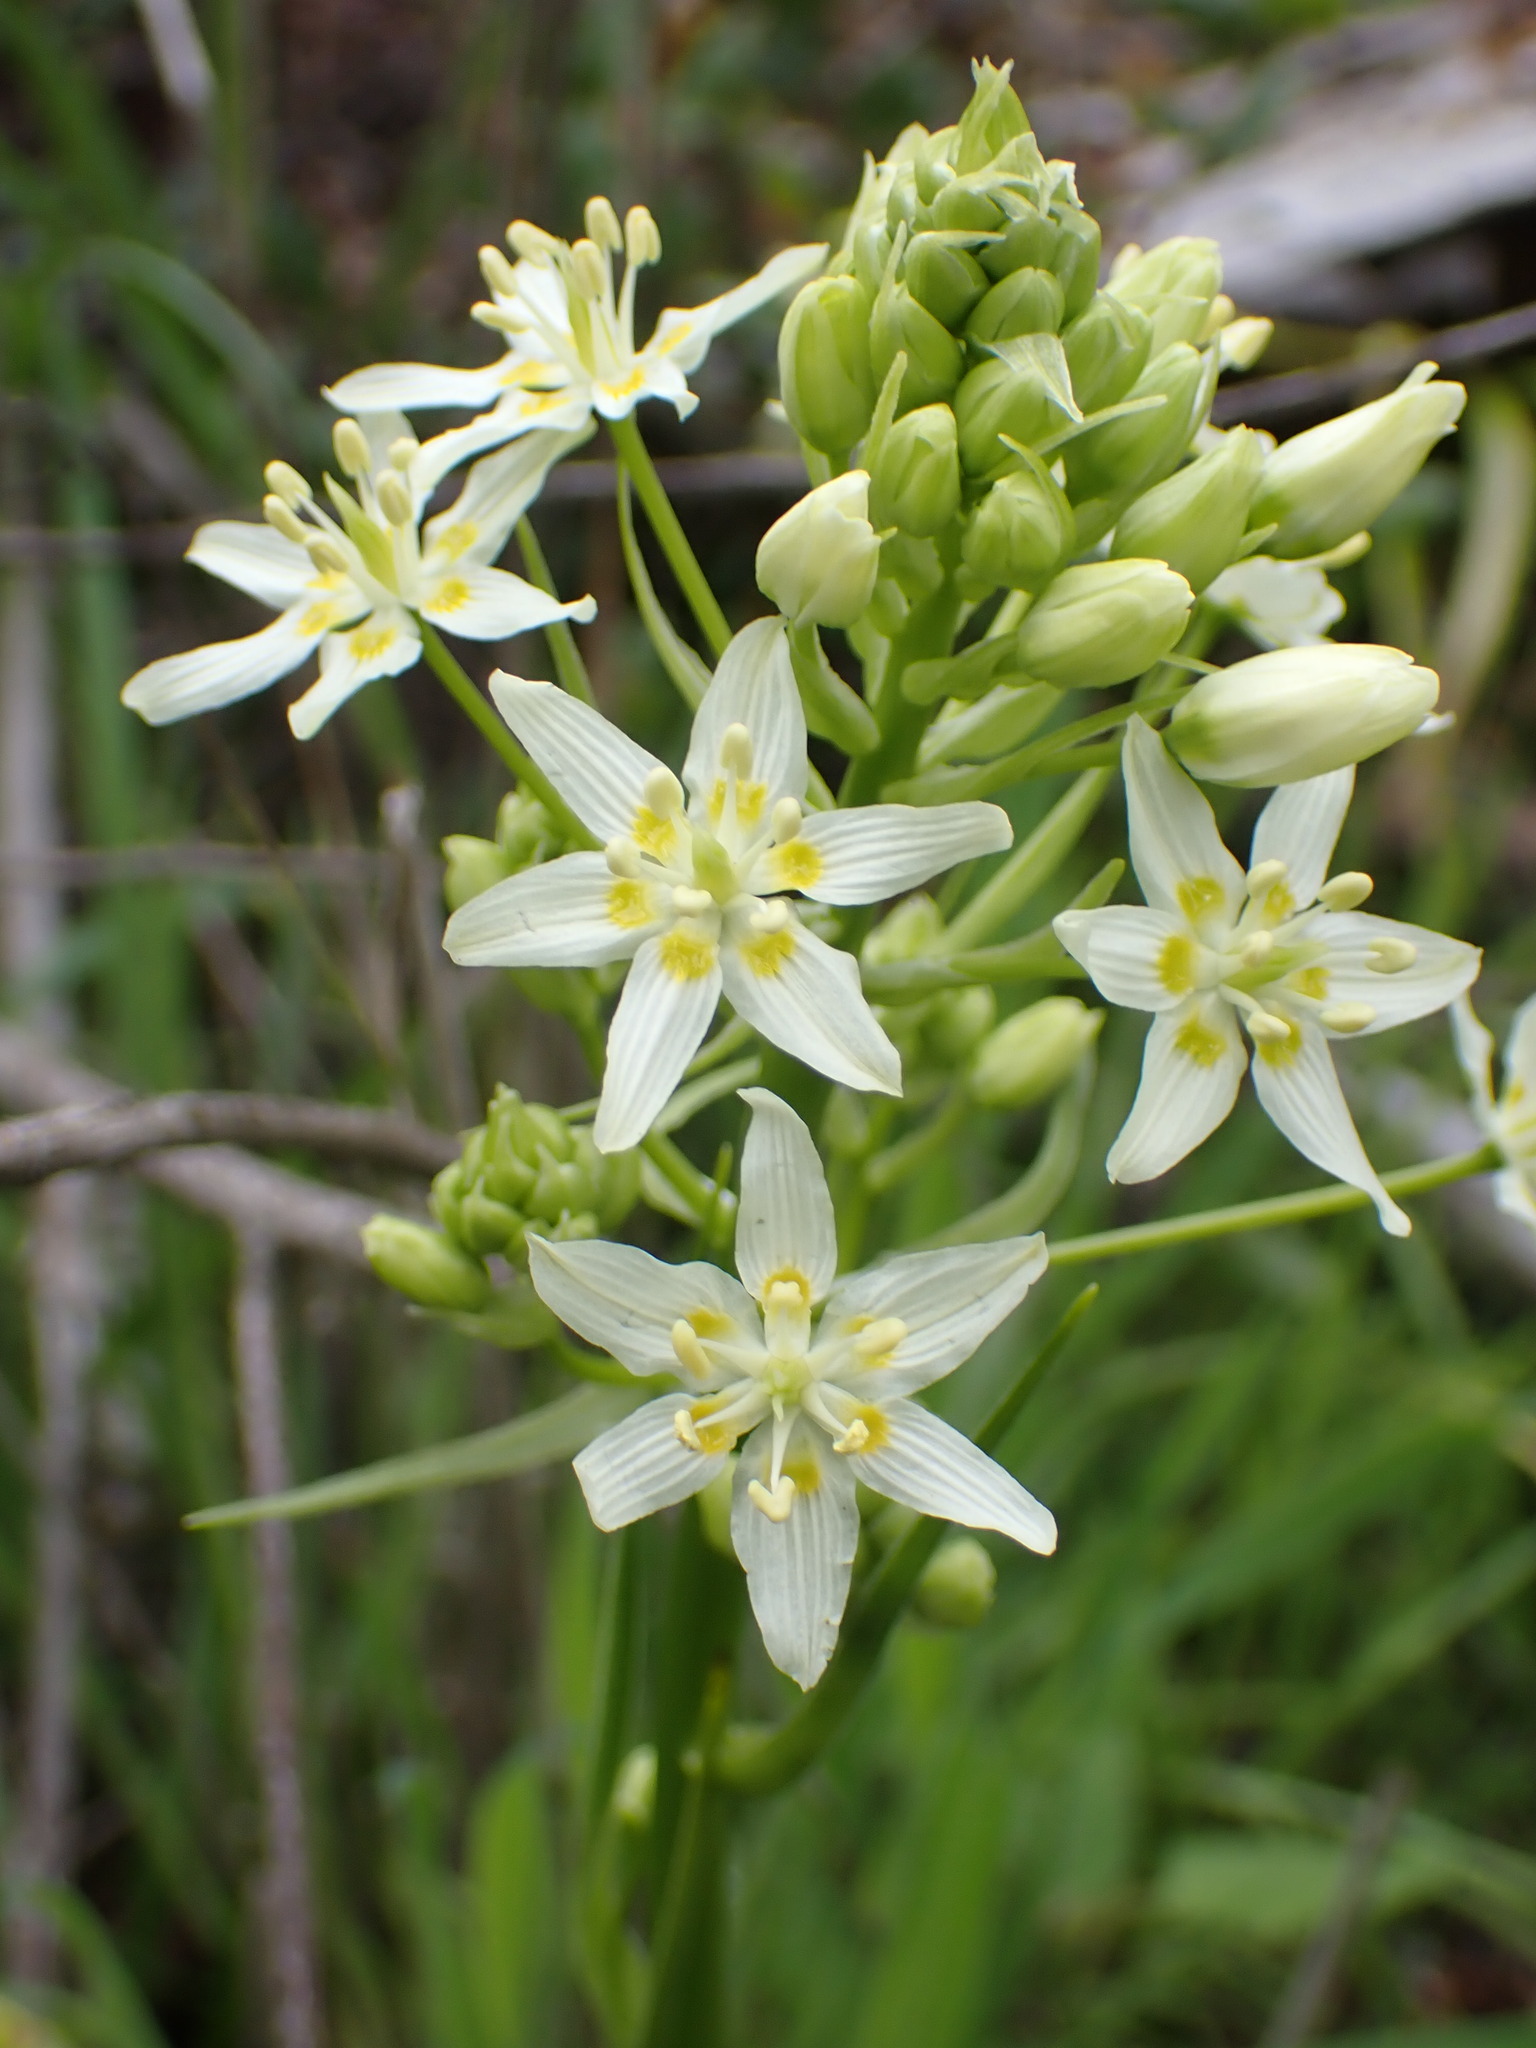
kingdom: Plantae
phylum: Tracheophyta
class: Liliopsida
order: Liliales
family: Melanthiaceae
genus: Toxicoscordion
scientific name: Toxicoscordion fremontii
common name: Fremont's death camas
